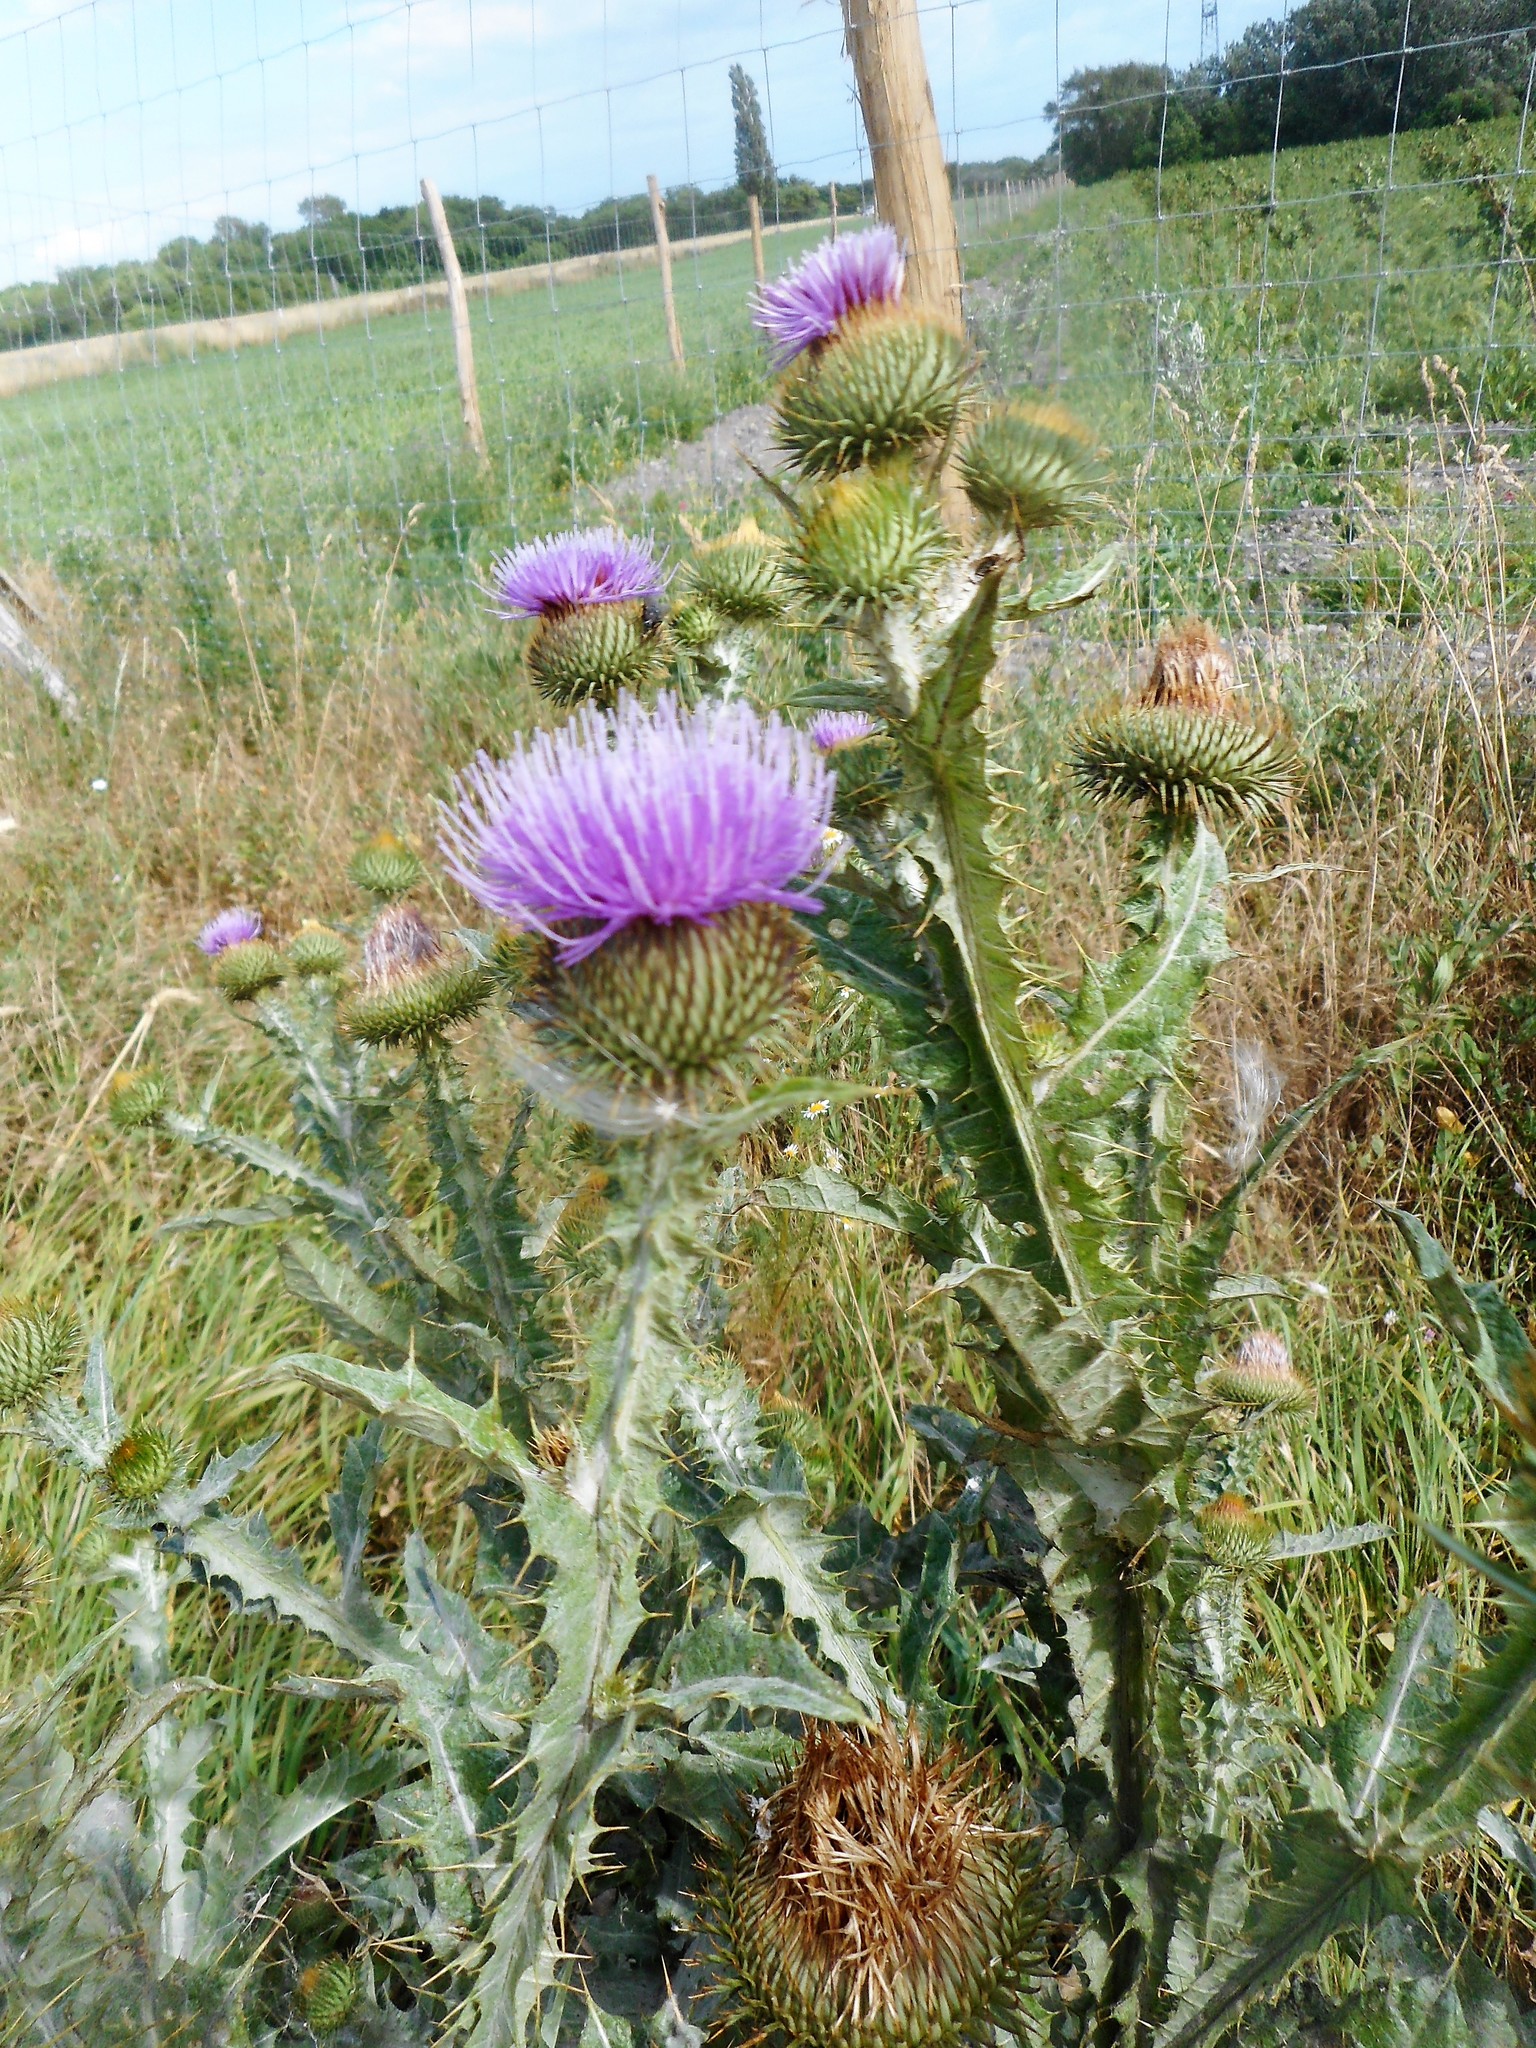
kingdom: Plantae
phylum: Tracheophyta
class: Magnoliopsida
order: Asterales
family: Asteraceae
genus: Onopordum
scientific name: Onopordum acanthium
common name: Scotch thistle
